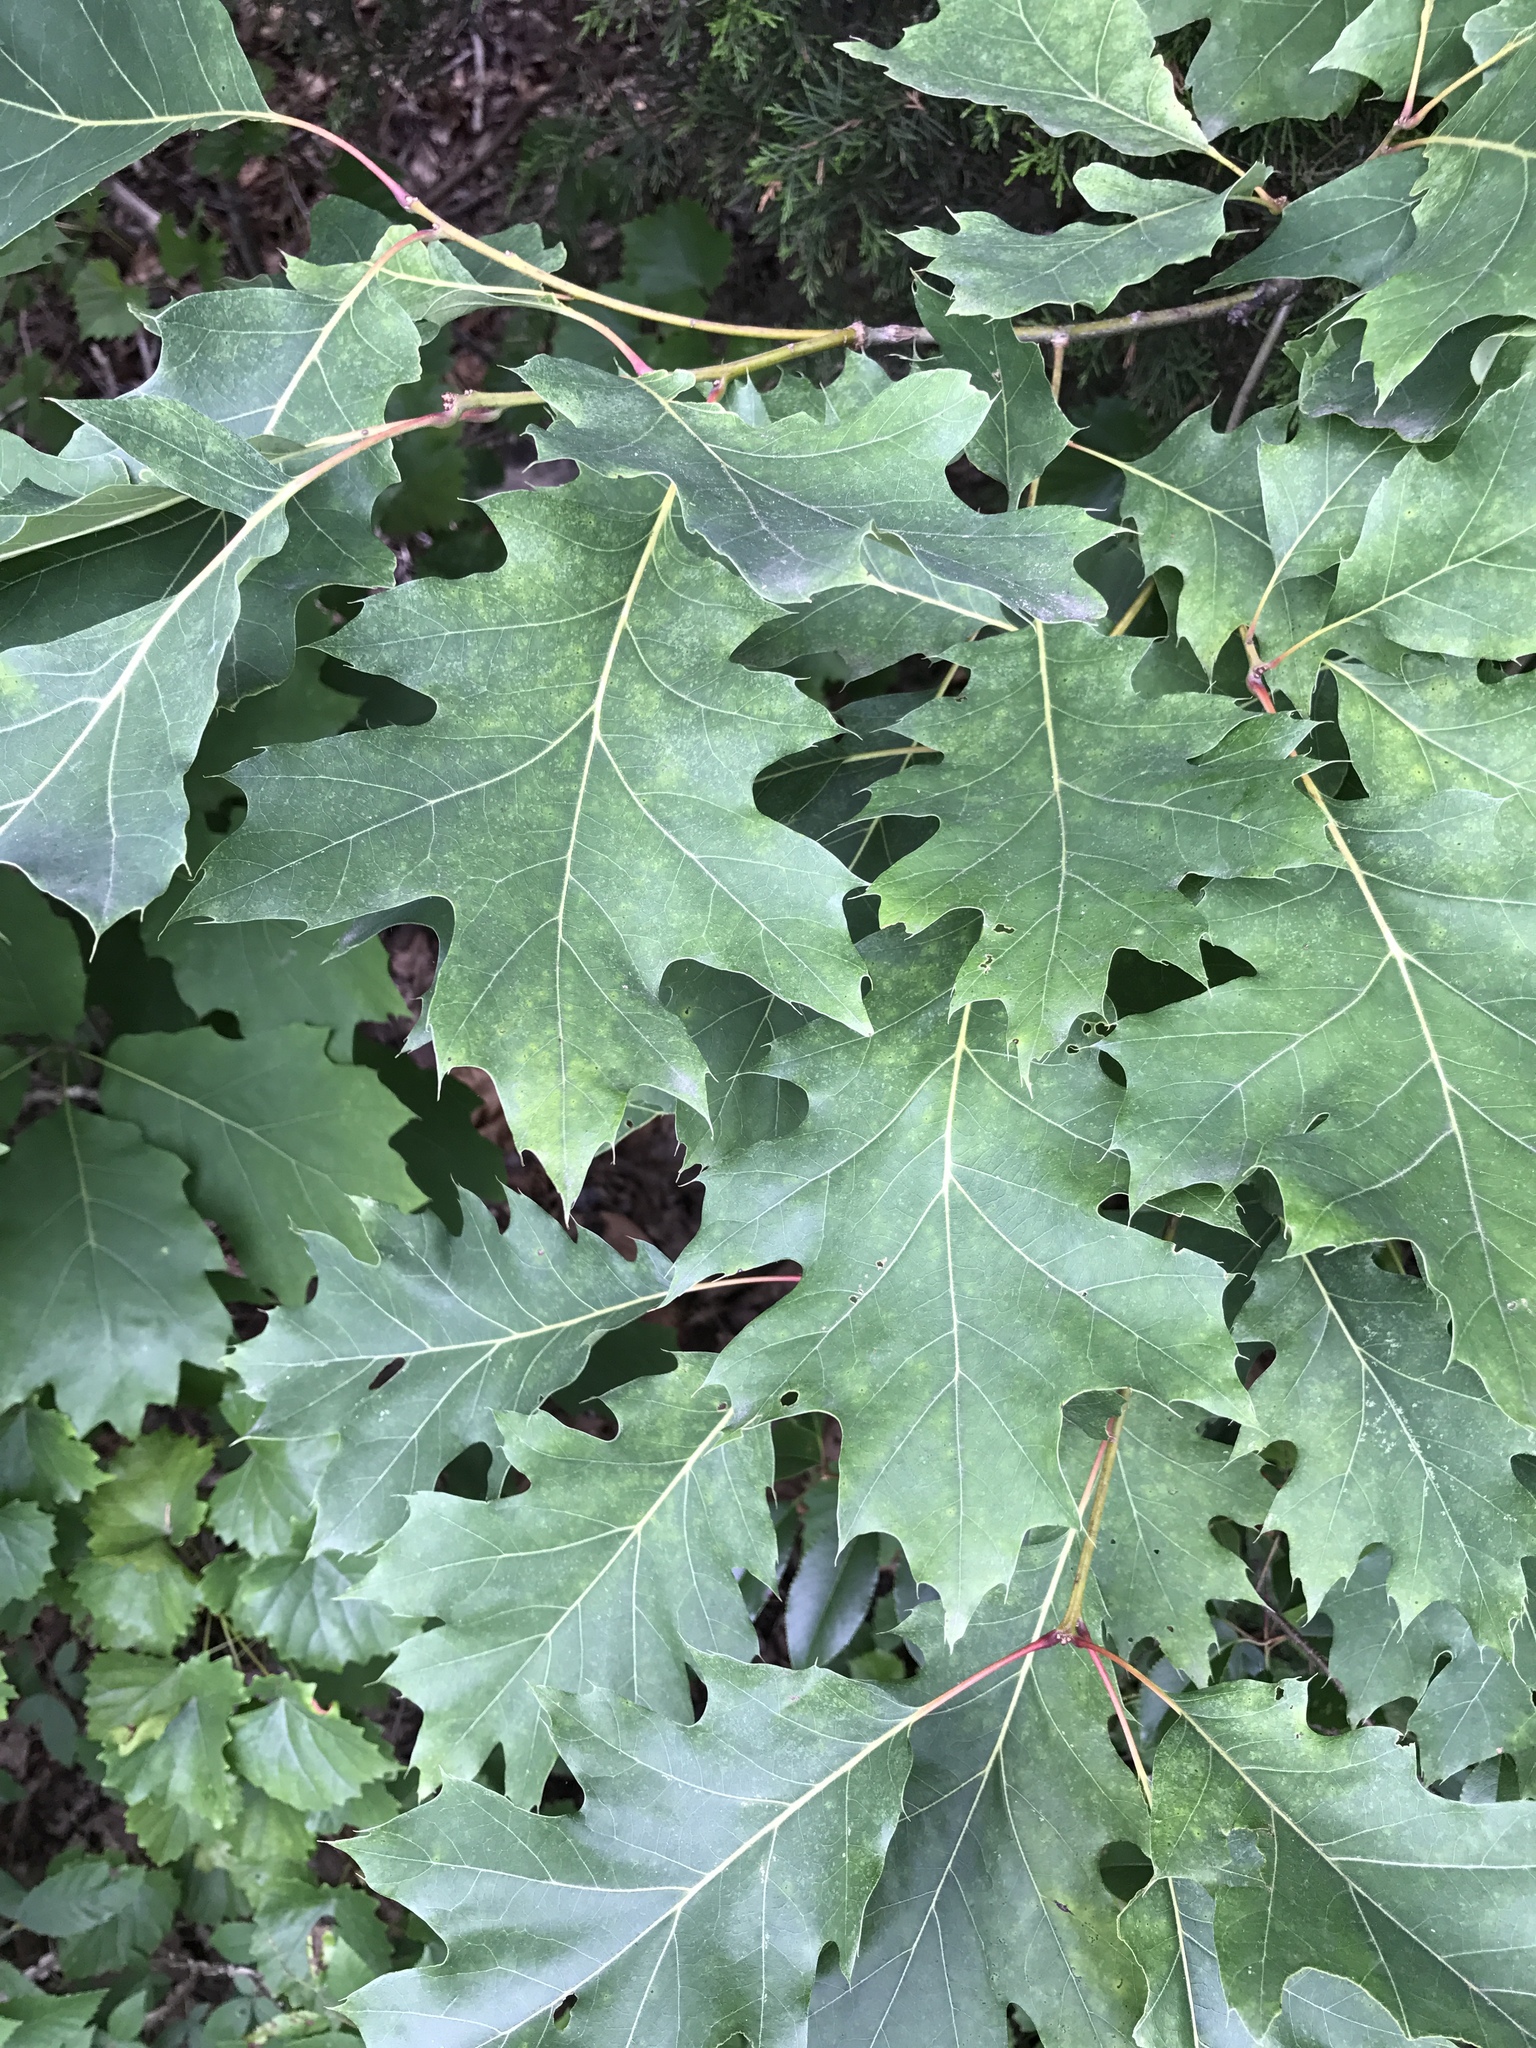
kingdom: Plantae
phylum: Tracheophyta
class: Magnoliopsida
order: Fagales
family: Fagaceae
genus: Quercus
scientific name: Quercus rubra
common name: Red oak
